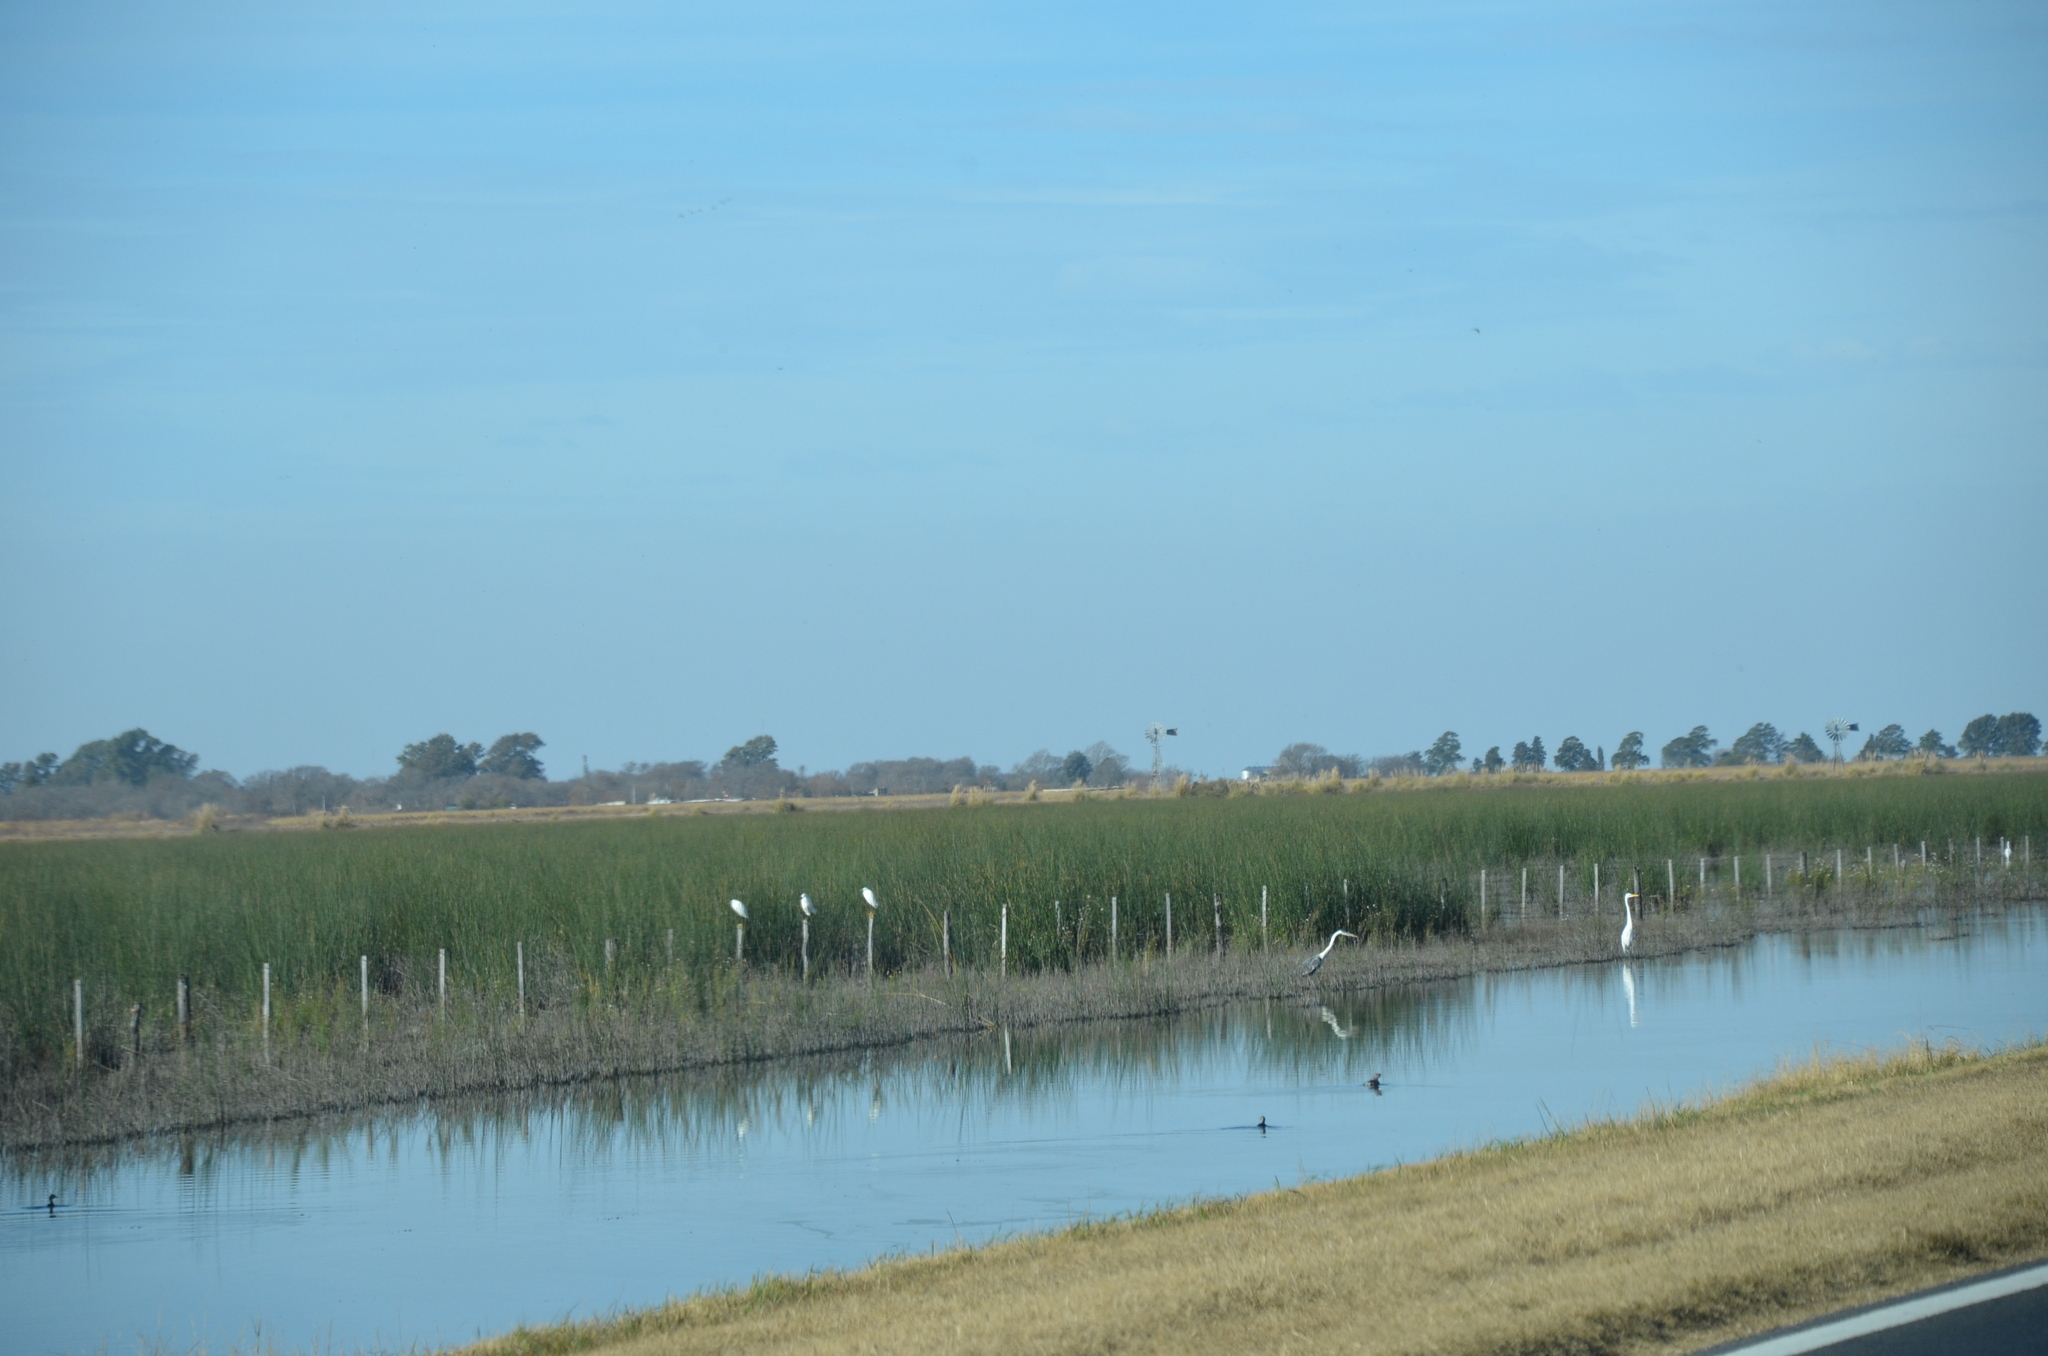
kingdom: Animalia
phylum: Chordata
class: Aves
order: Pelecaniformes
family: Ardeidae
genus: Ardea
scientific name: Ardea alba
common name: Great egret
